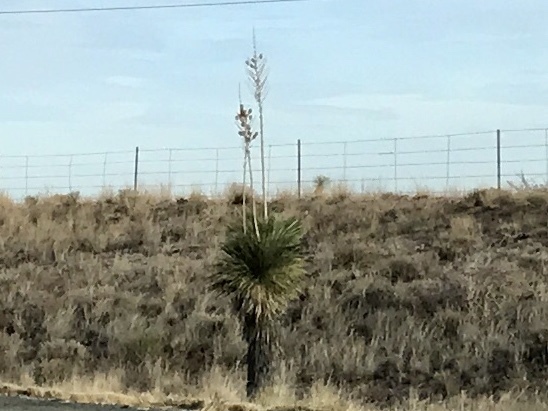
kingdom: Plantae
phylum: Tracheophyta
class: Liliopsida
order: Asparagales
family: Asparagaceae
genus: Yucca
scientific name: Yucca elata
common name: Palmella
